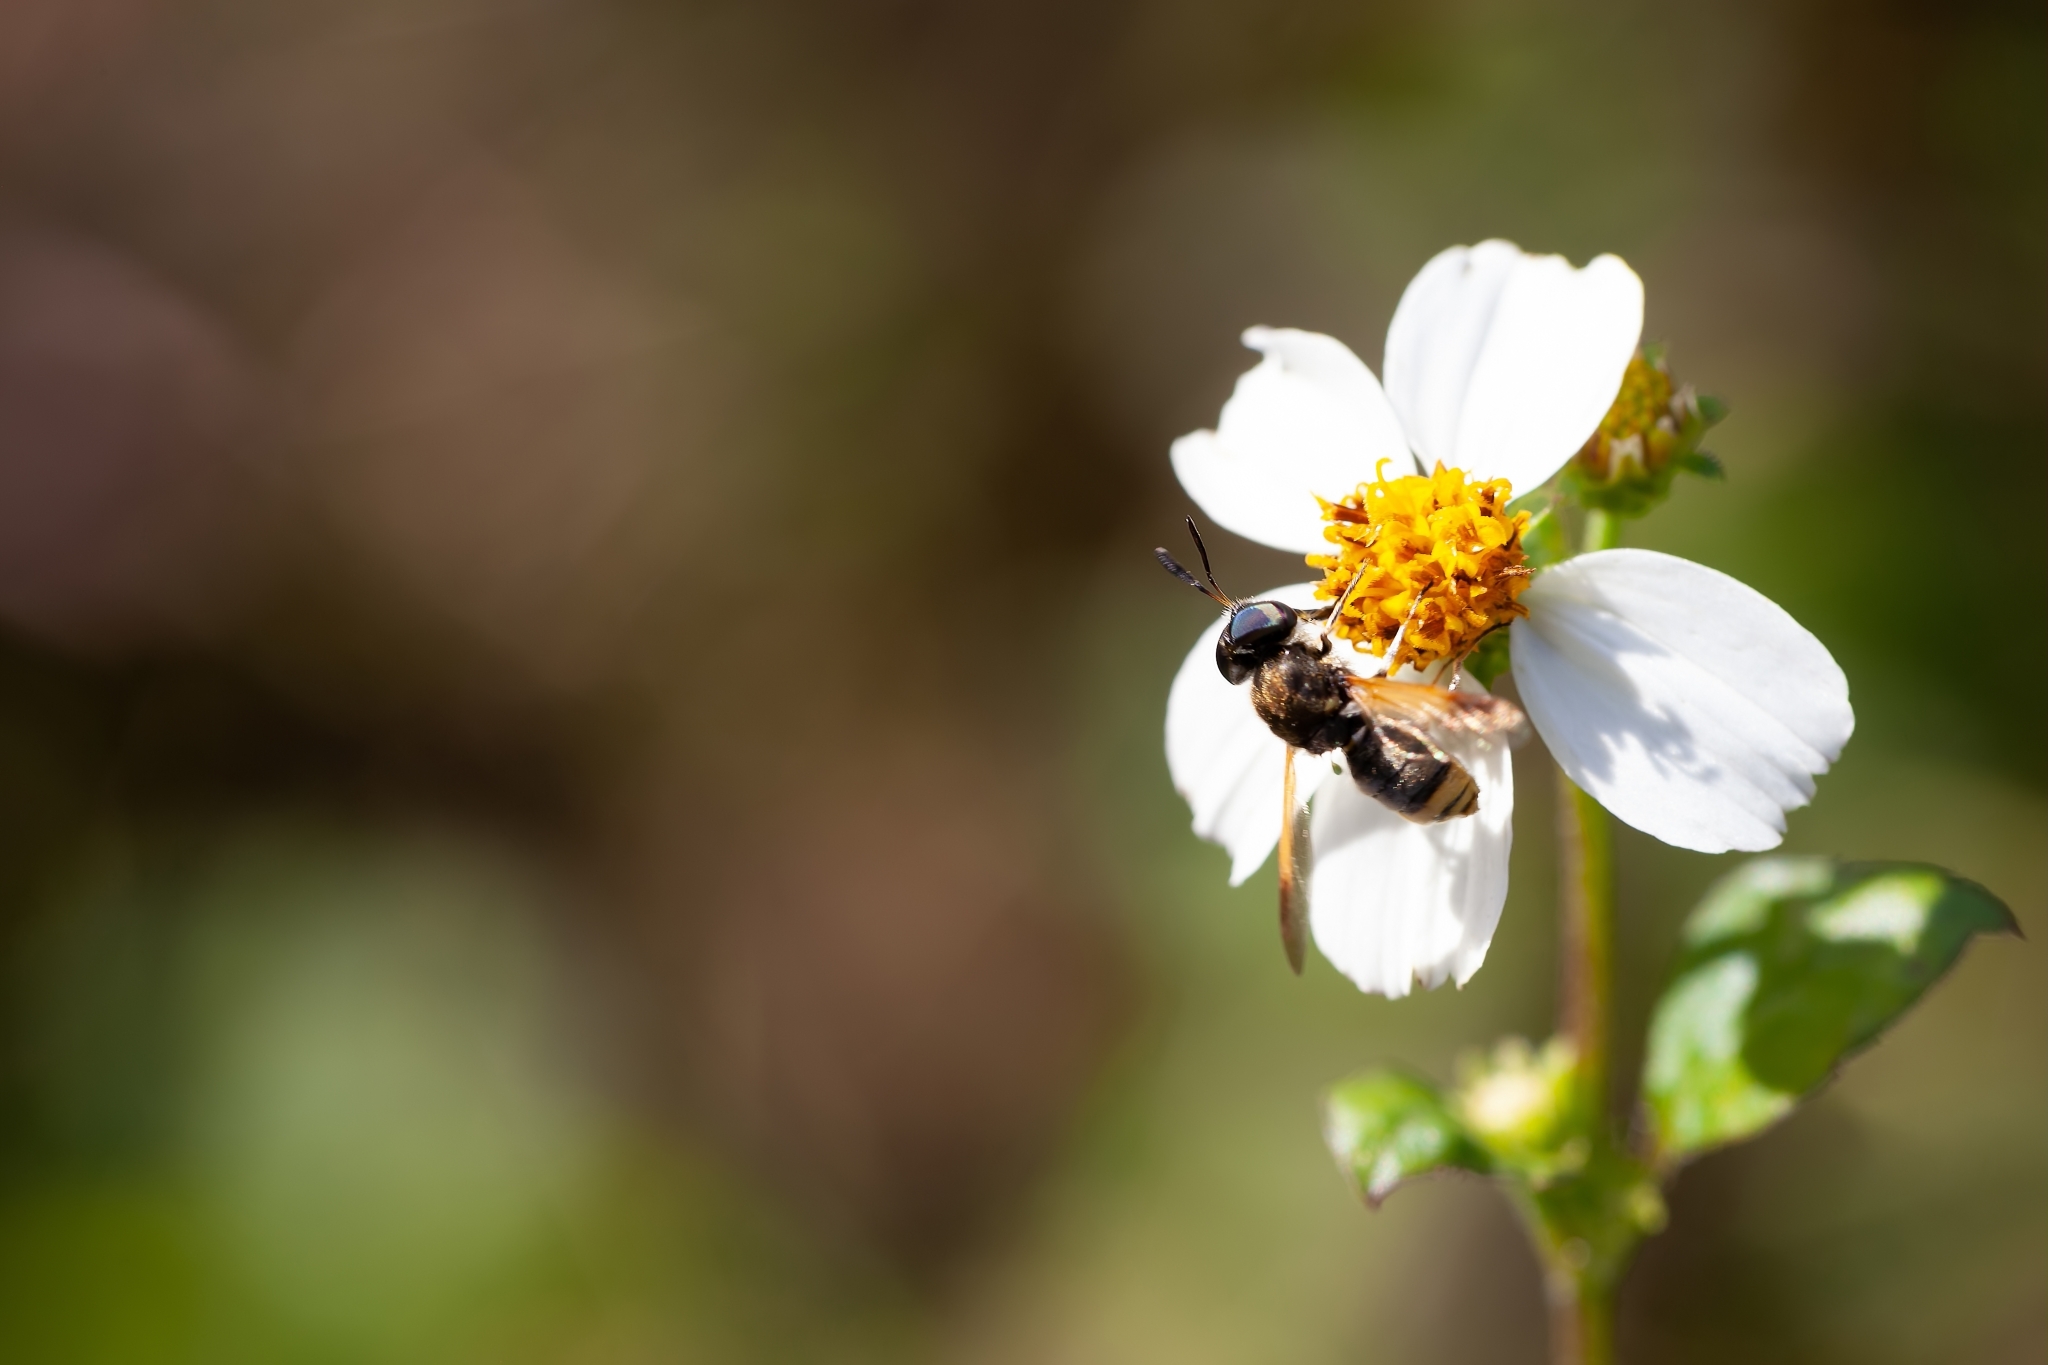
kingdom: Animalia
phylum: Arthropoda
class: Insecta
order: Diptera
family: Stratiomyidae
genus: Hoplitimyia
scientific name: Hoplitimyia mutabilis
